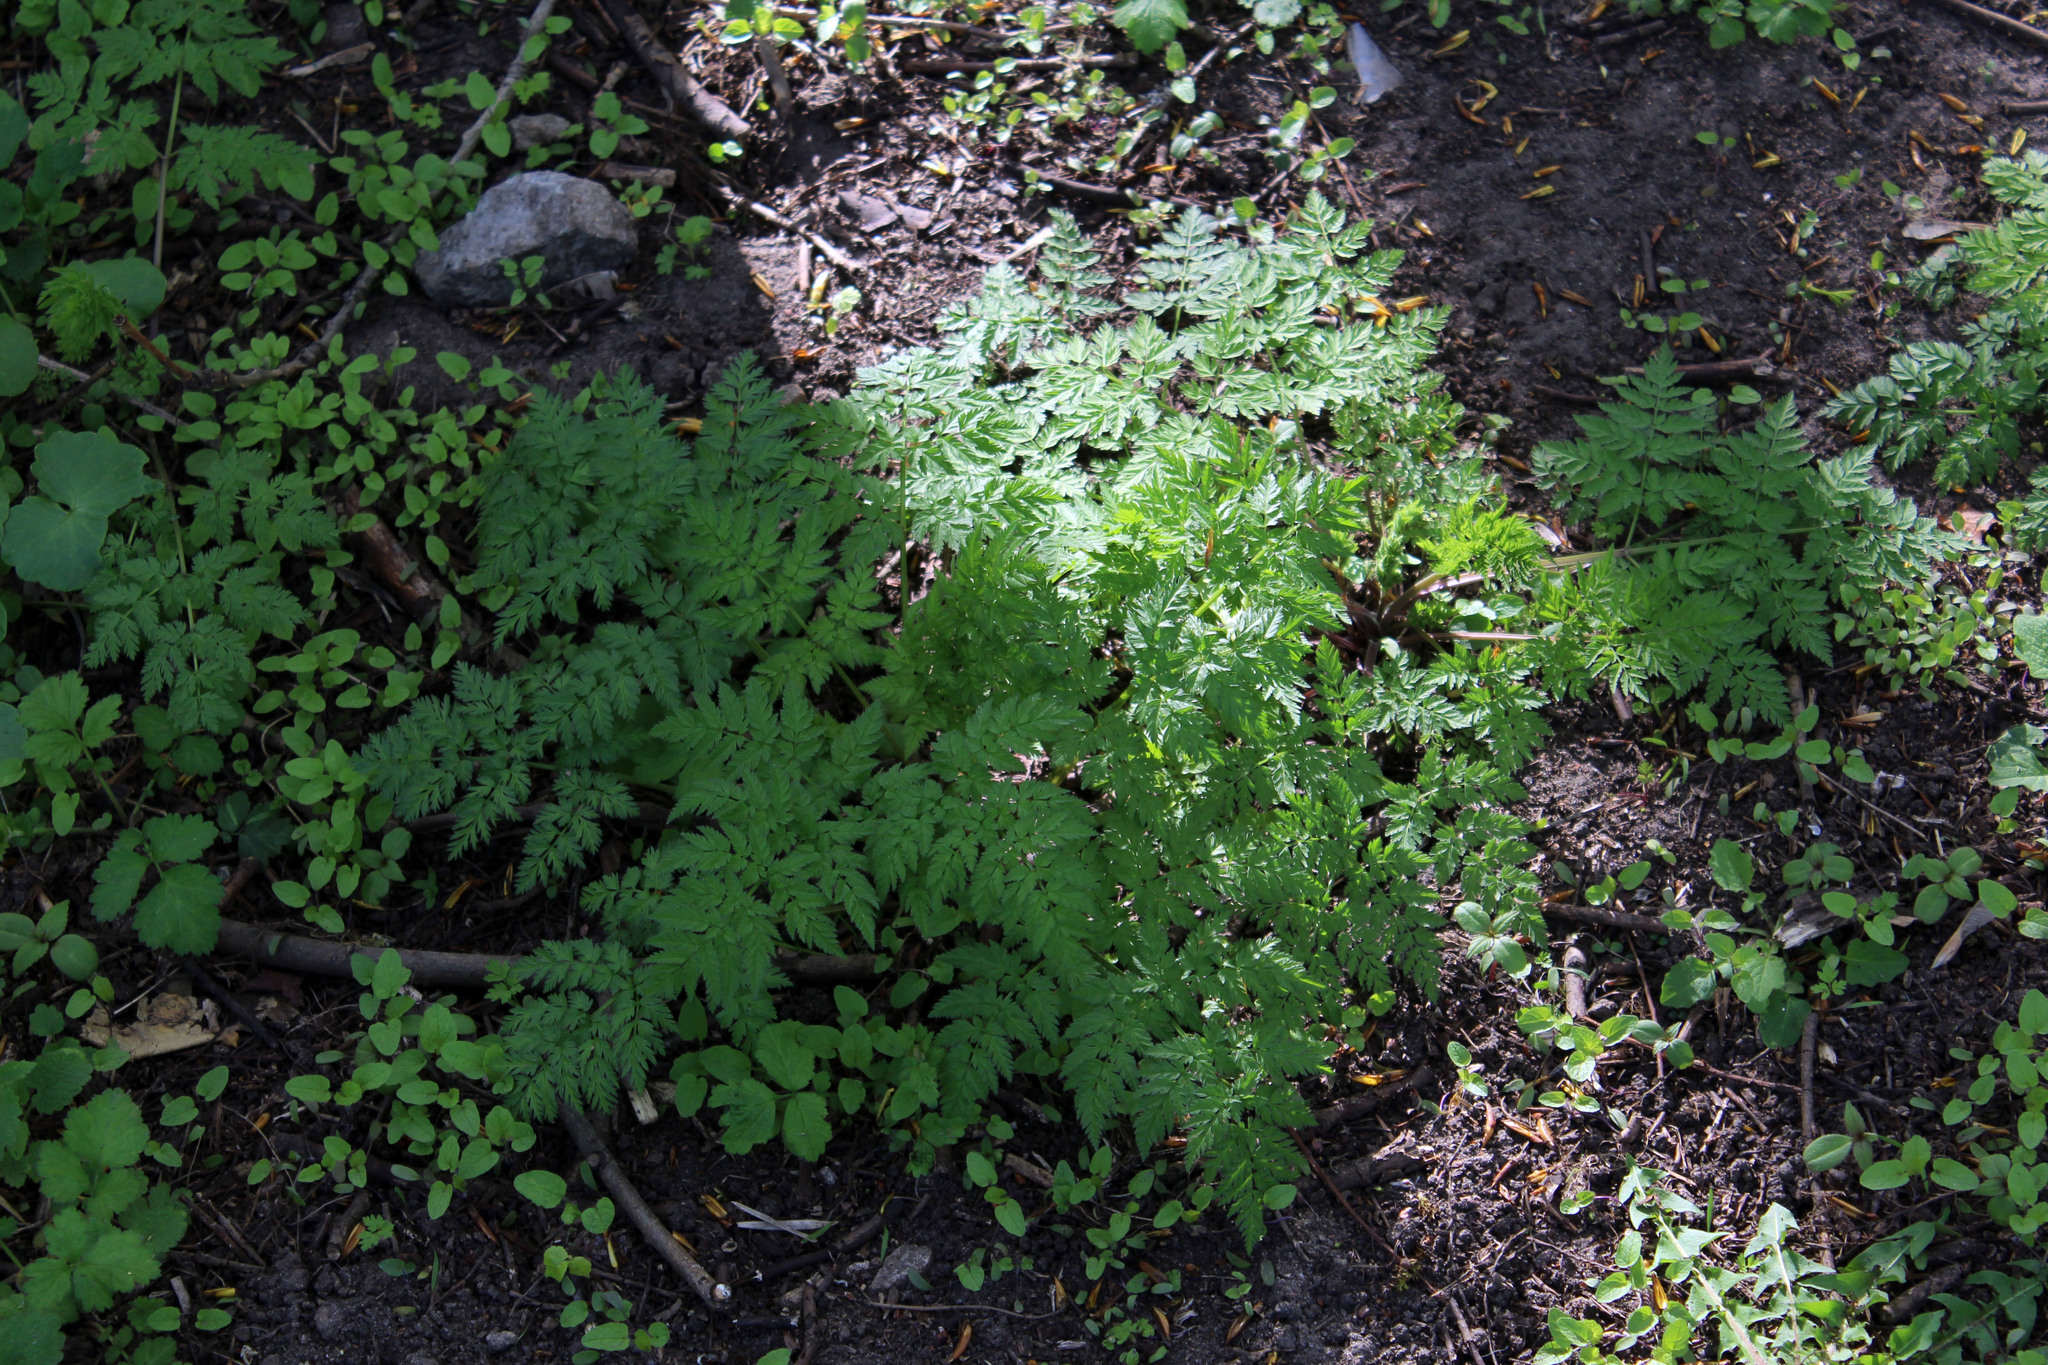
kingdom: Plantae
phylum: Tracheophyta
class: Magnoliopsida
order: Apiales
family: Apiaceae
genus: Anthriscus
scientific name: Anthriscus sylvestris
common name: Cow parsley
